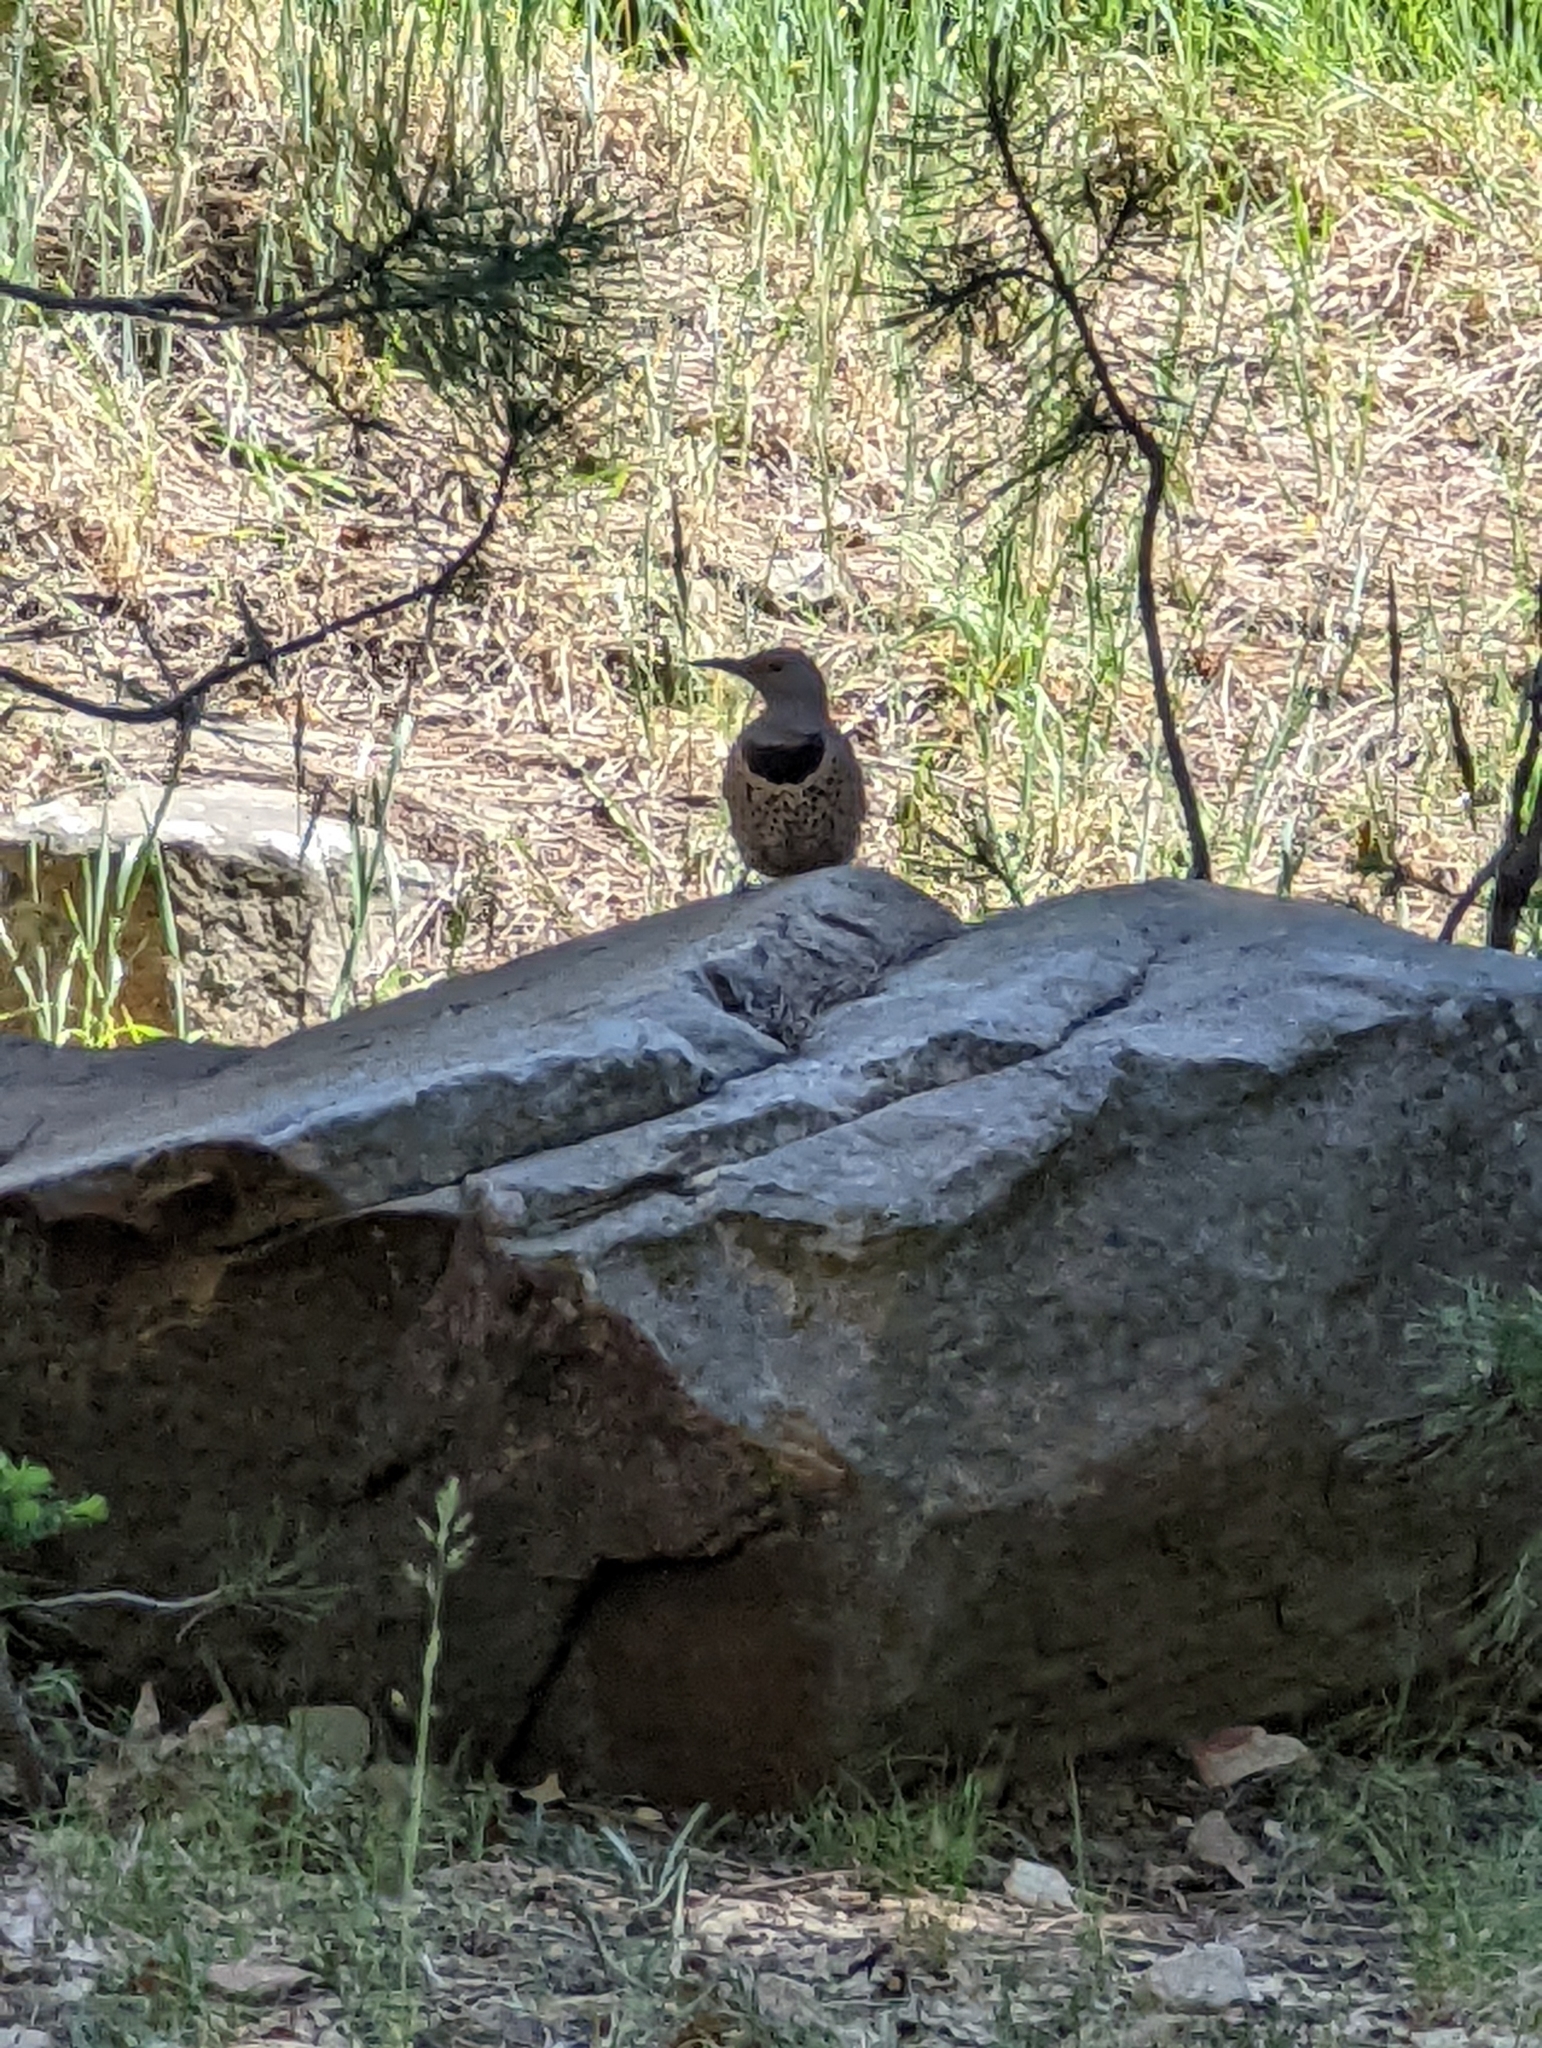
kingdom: Animalia
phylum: Chordata
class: Aves
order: Piciformes
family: Picidae
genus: Colaptes
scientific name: Colaptes auratus
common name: Northern flicker
